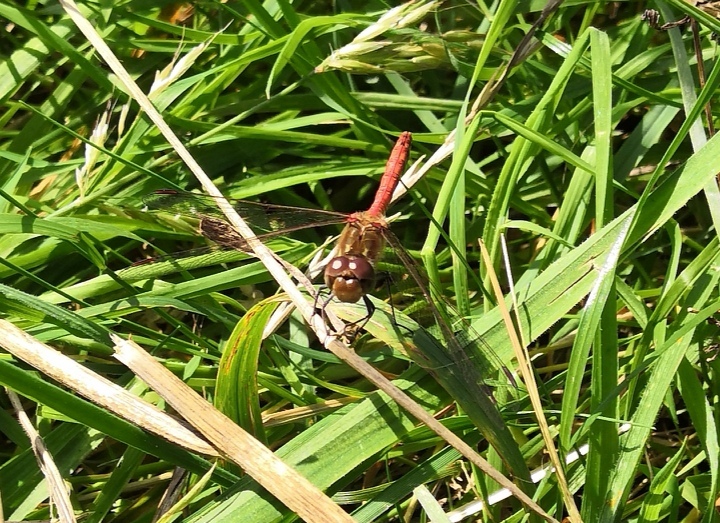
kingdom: Animalia
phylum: Arthropoda
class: Insecta
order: Odonata
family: Libellulidae
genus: Sympetrum
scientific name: Sympetrum striolatum
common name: Common darter
